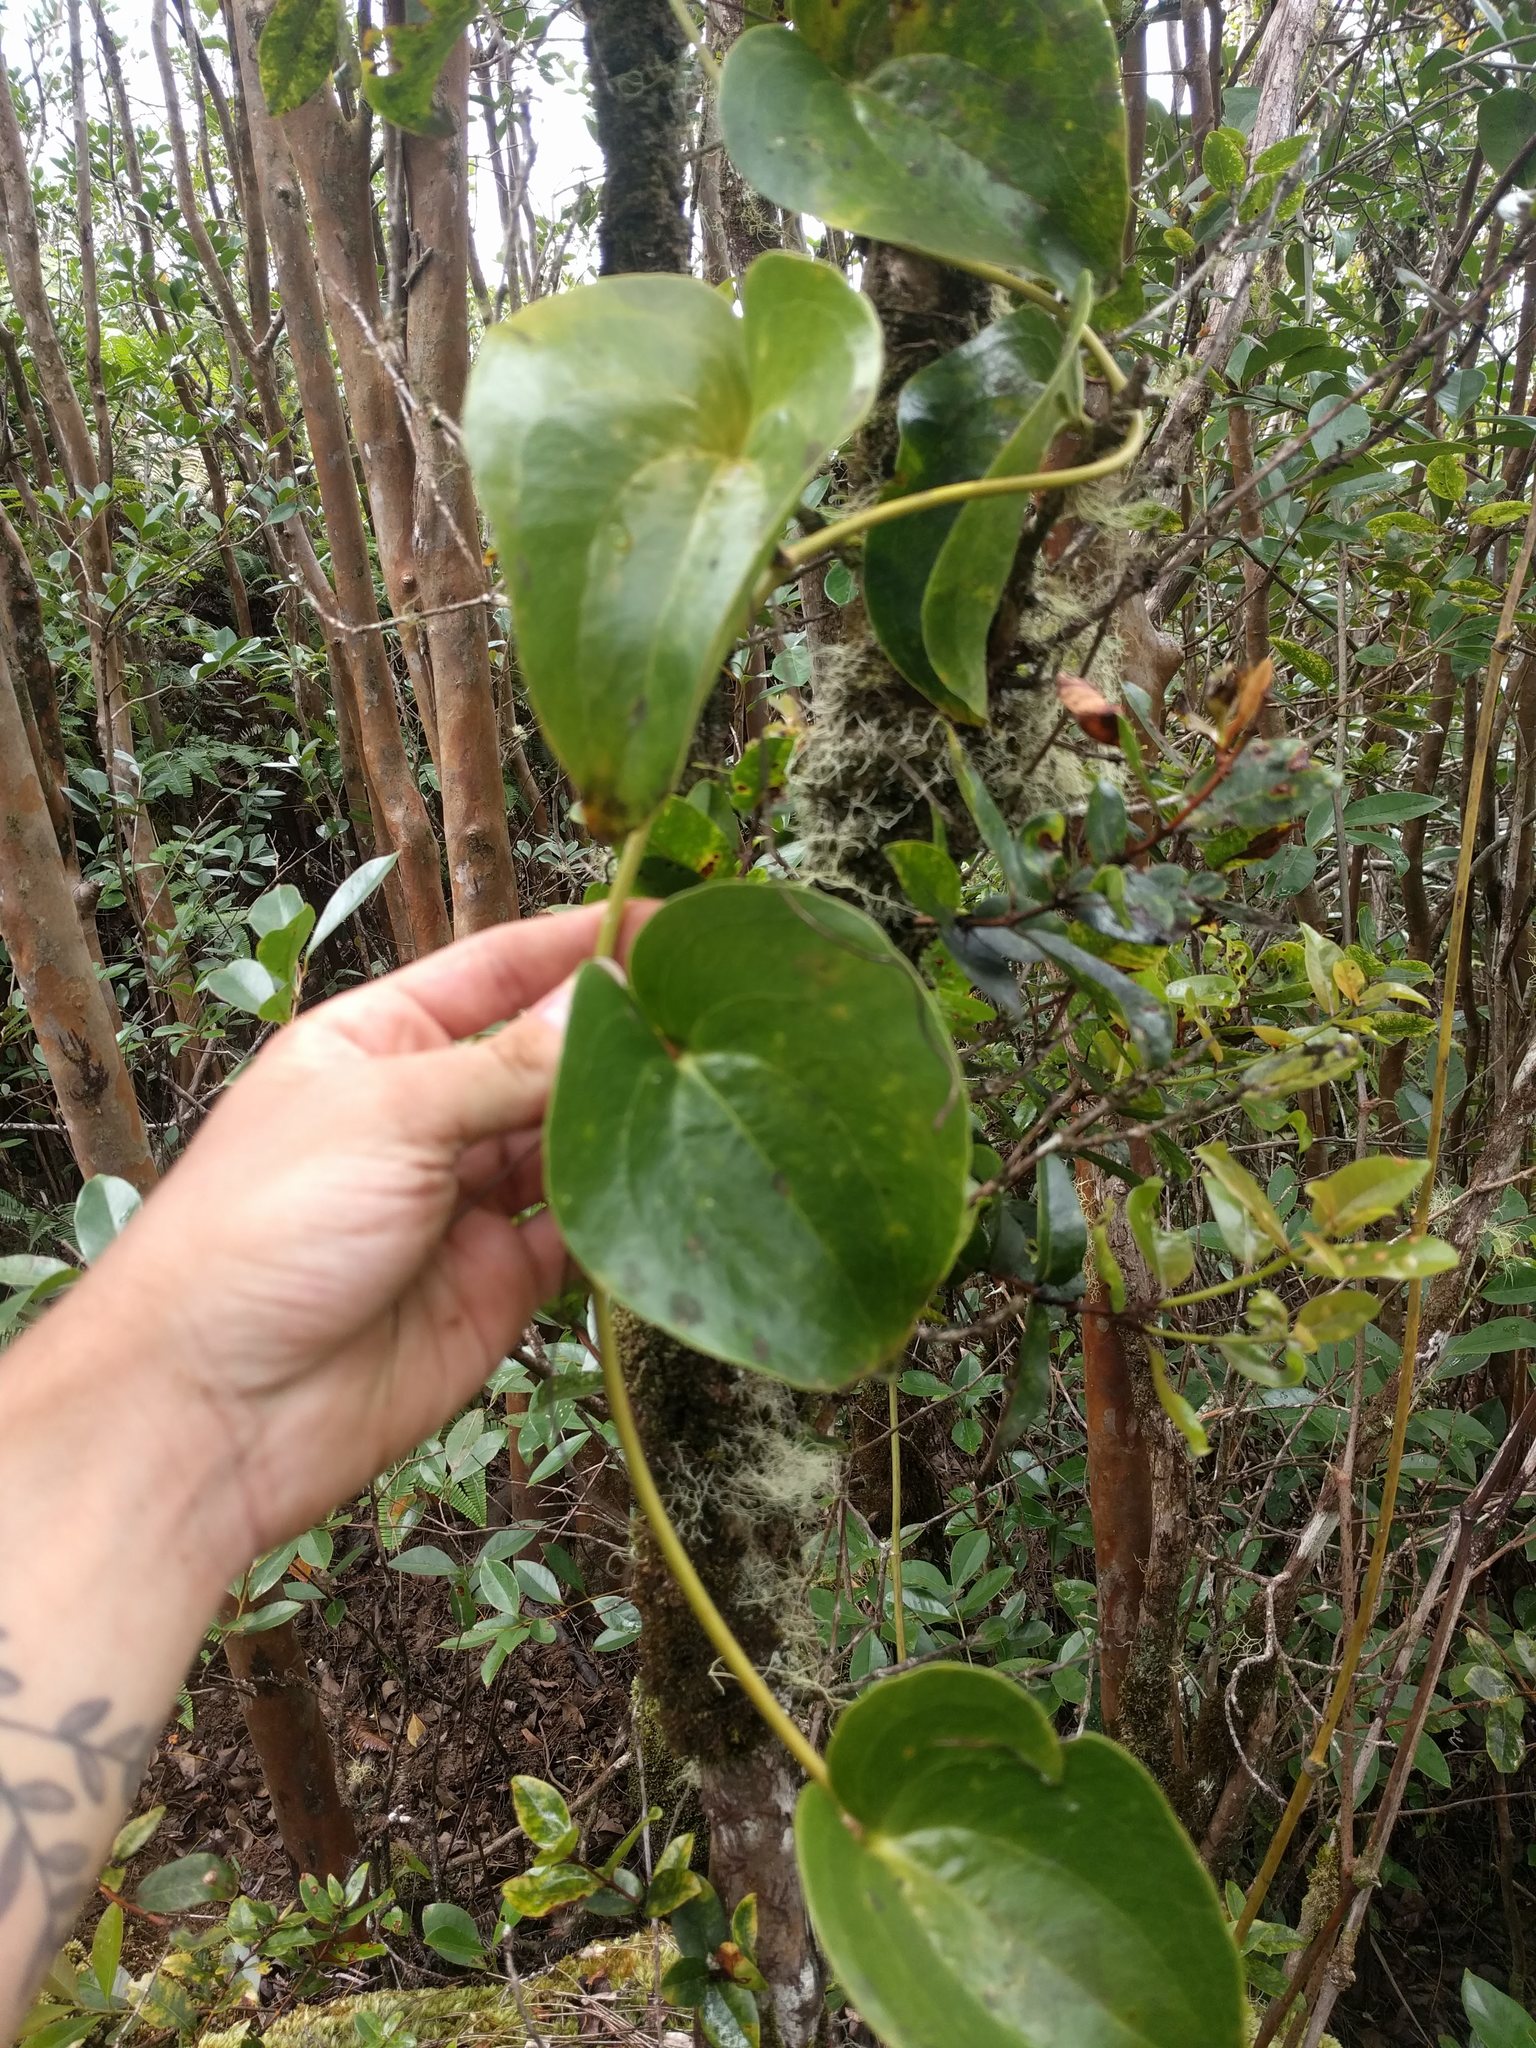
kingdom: Plantae
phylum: Tracheophyta
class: Liliopsida
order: Liliales
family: Smilacaceae
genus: Smilax
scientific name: Smilax melastomifolia
